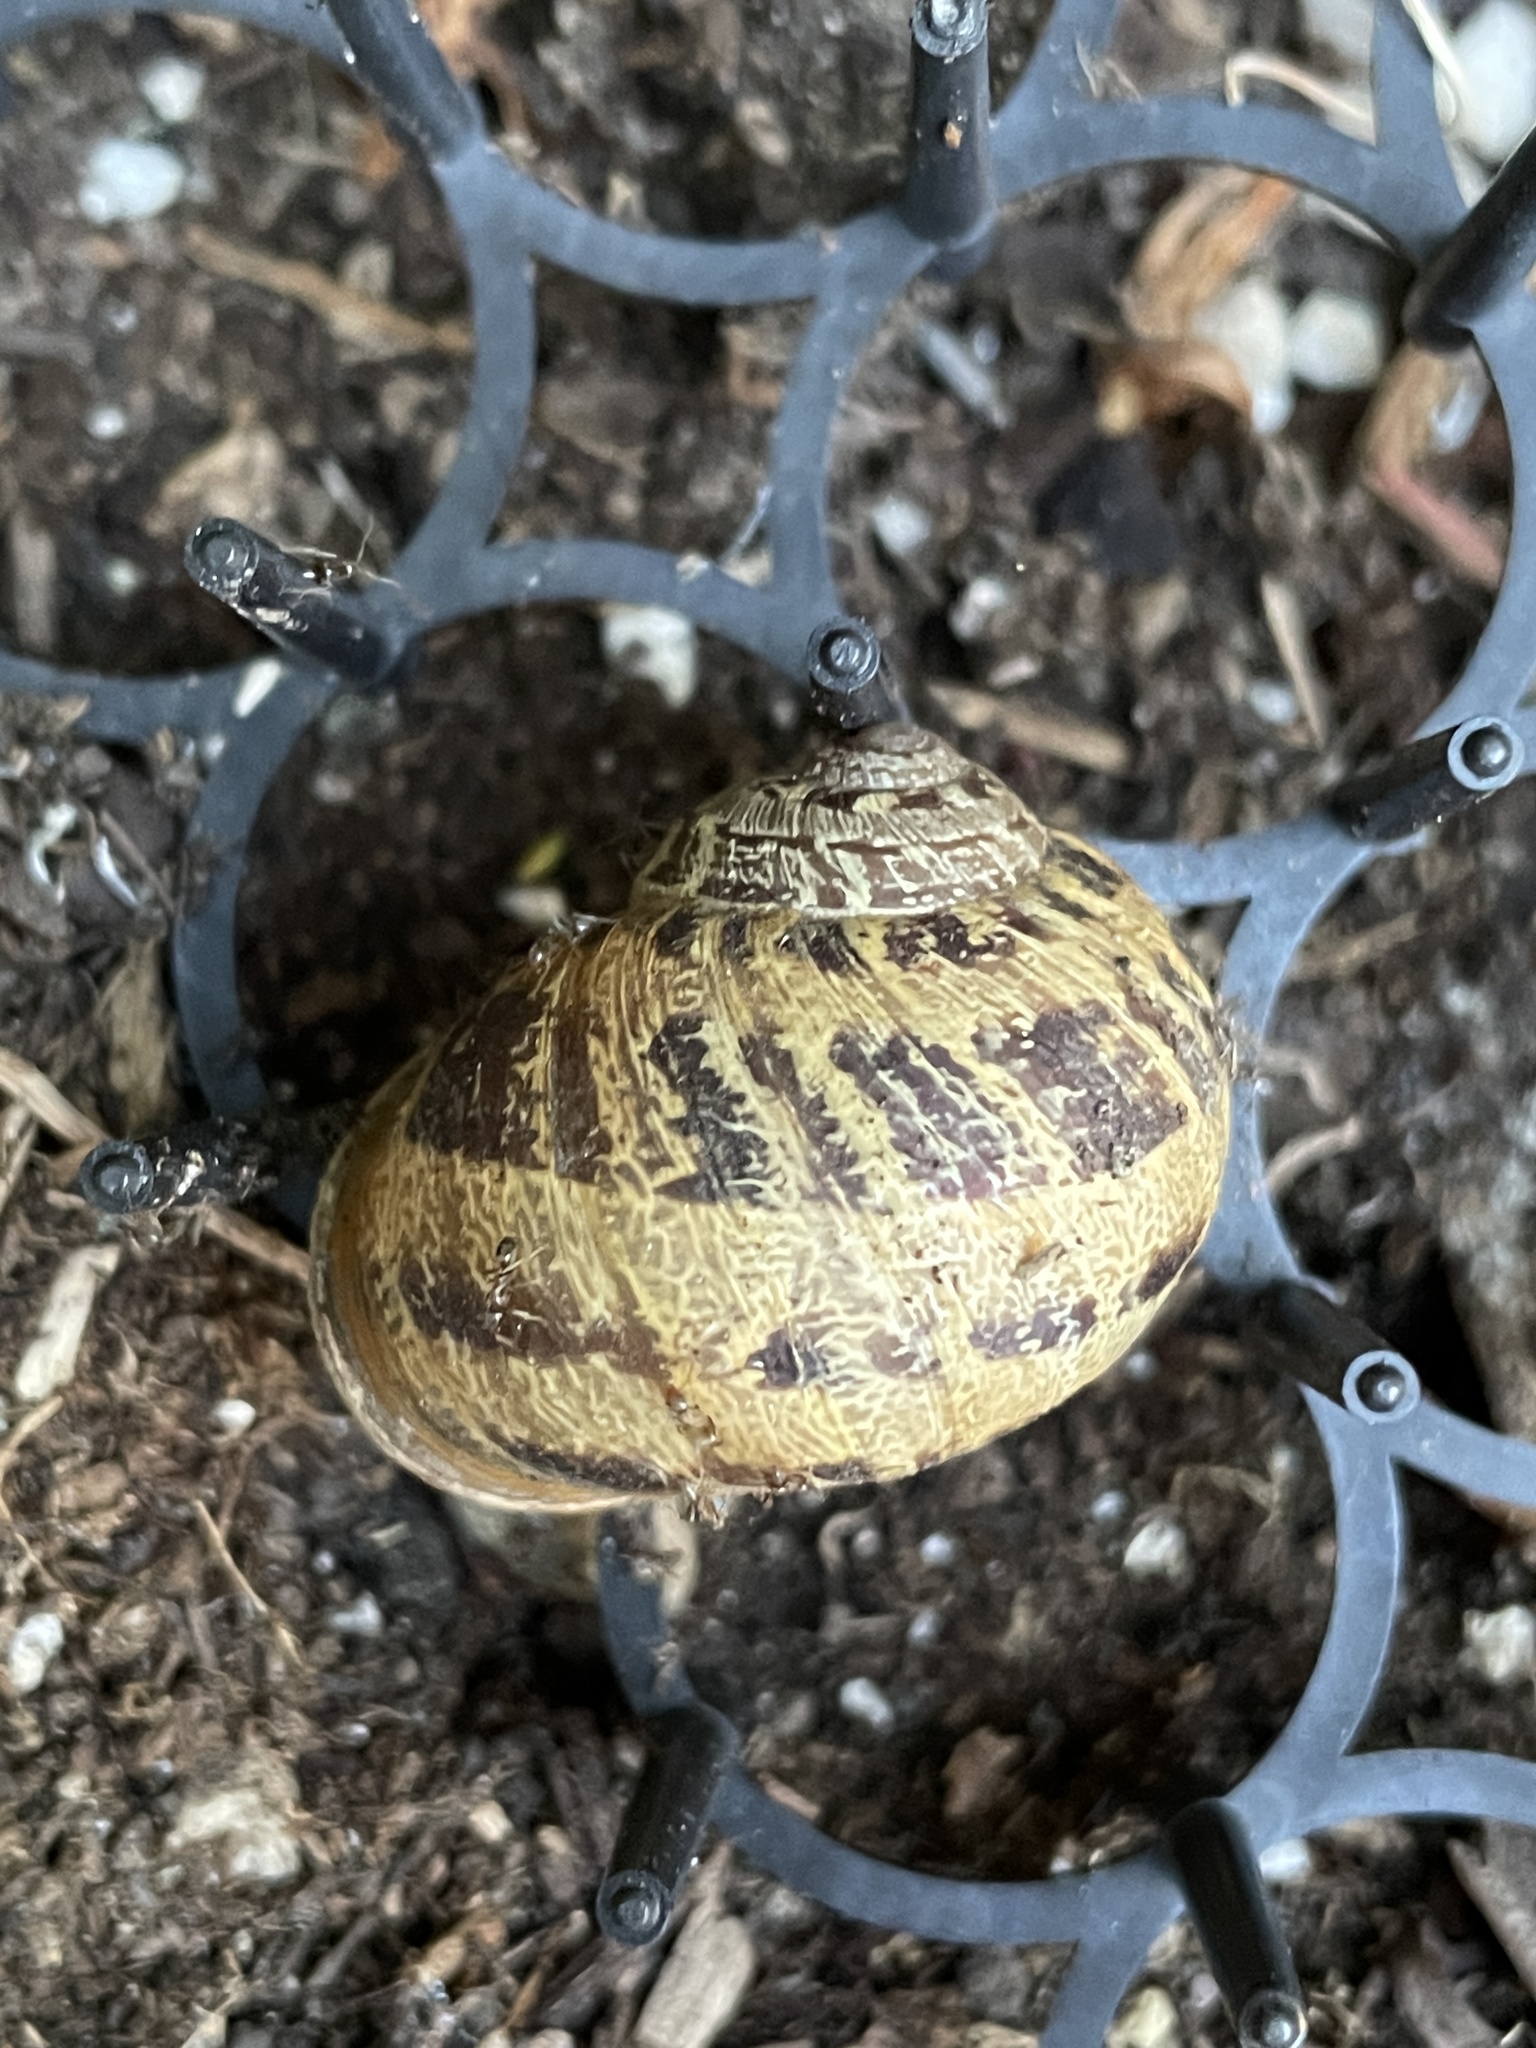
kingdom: Animalia
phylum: Mollusca
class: Gastropoda
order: Stylommatophora
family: Helicidae
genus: Cornu
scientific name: Cornu aspersum
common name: Brown garden snail
